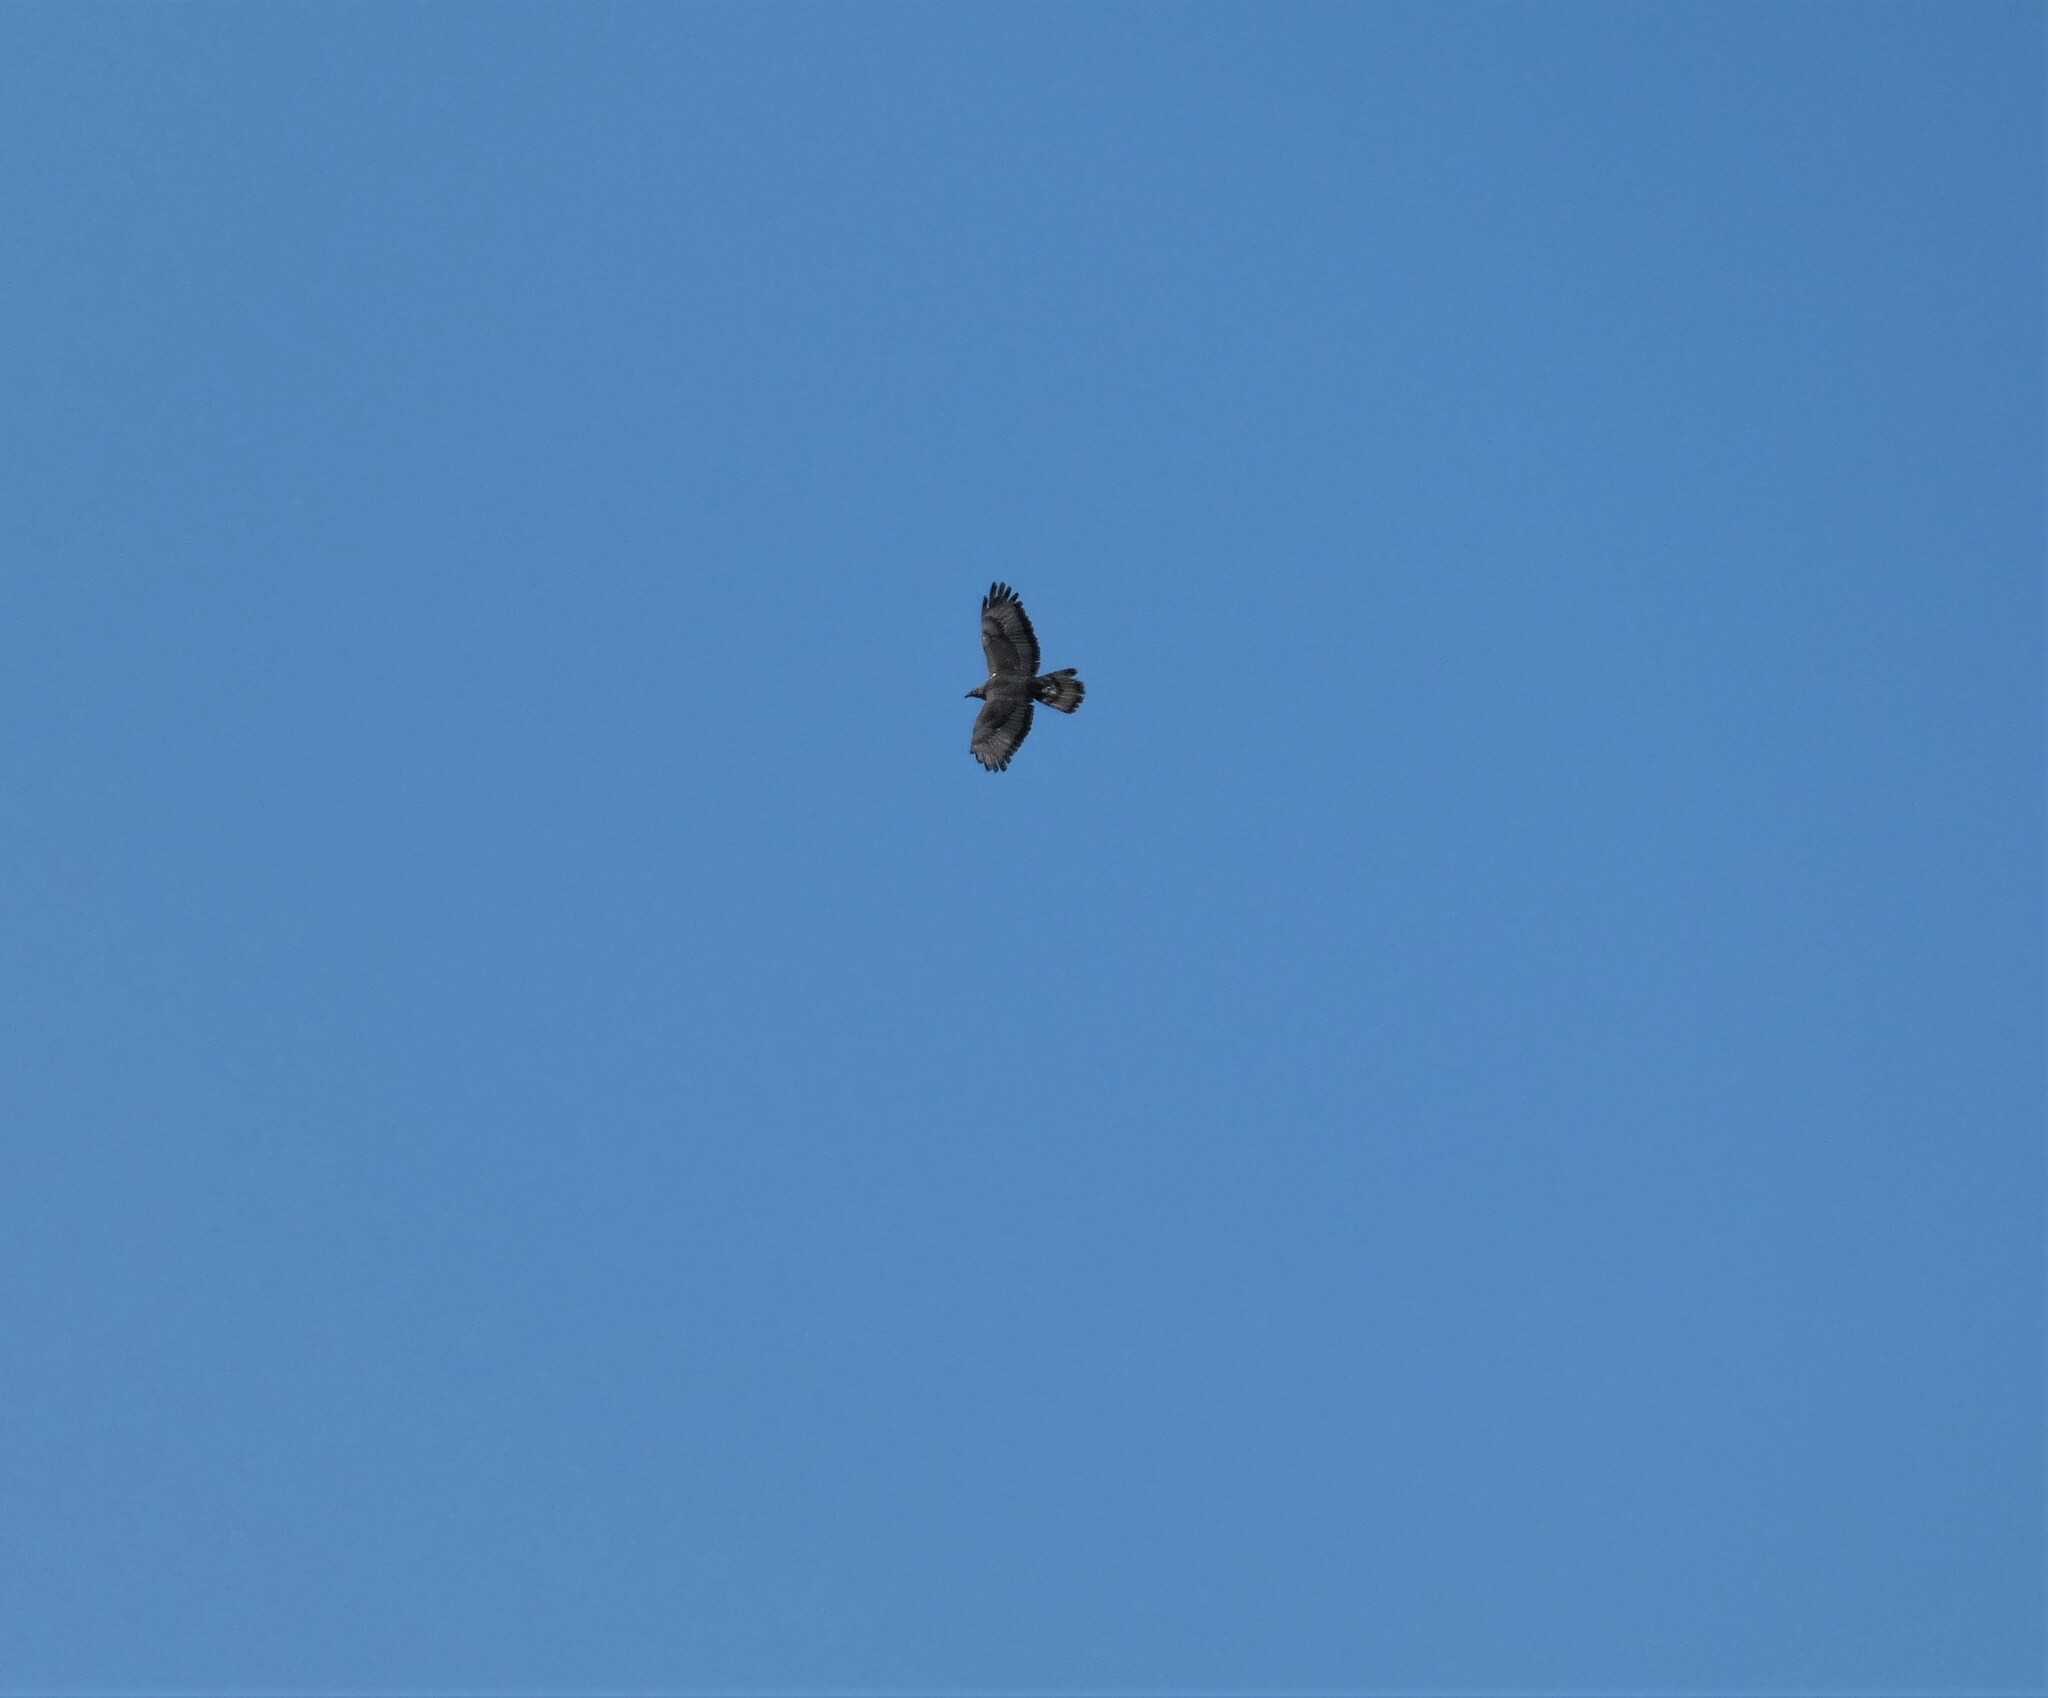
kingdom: Animalia
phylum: Chordata
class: Aves
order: Accipitriformes
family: Accipitridae
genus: Pernis
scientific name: Pernis apivorus
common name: European honey buzzard
